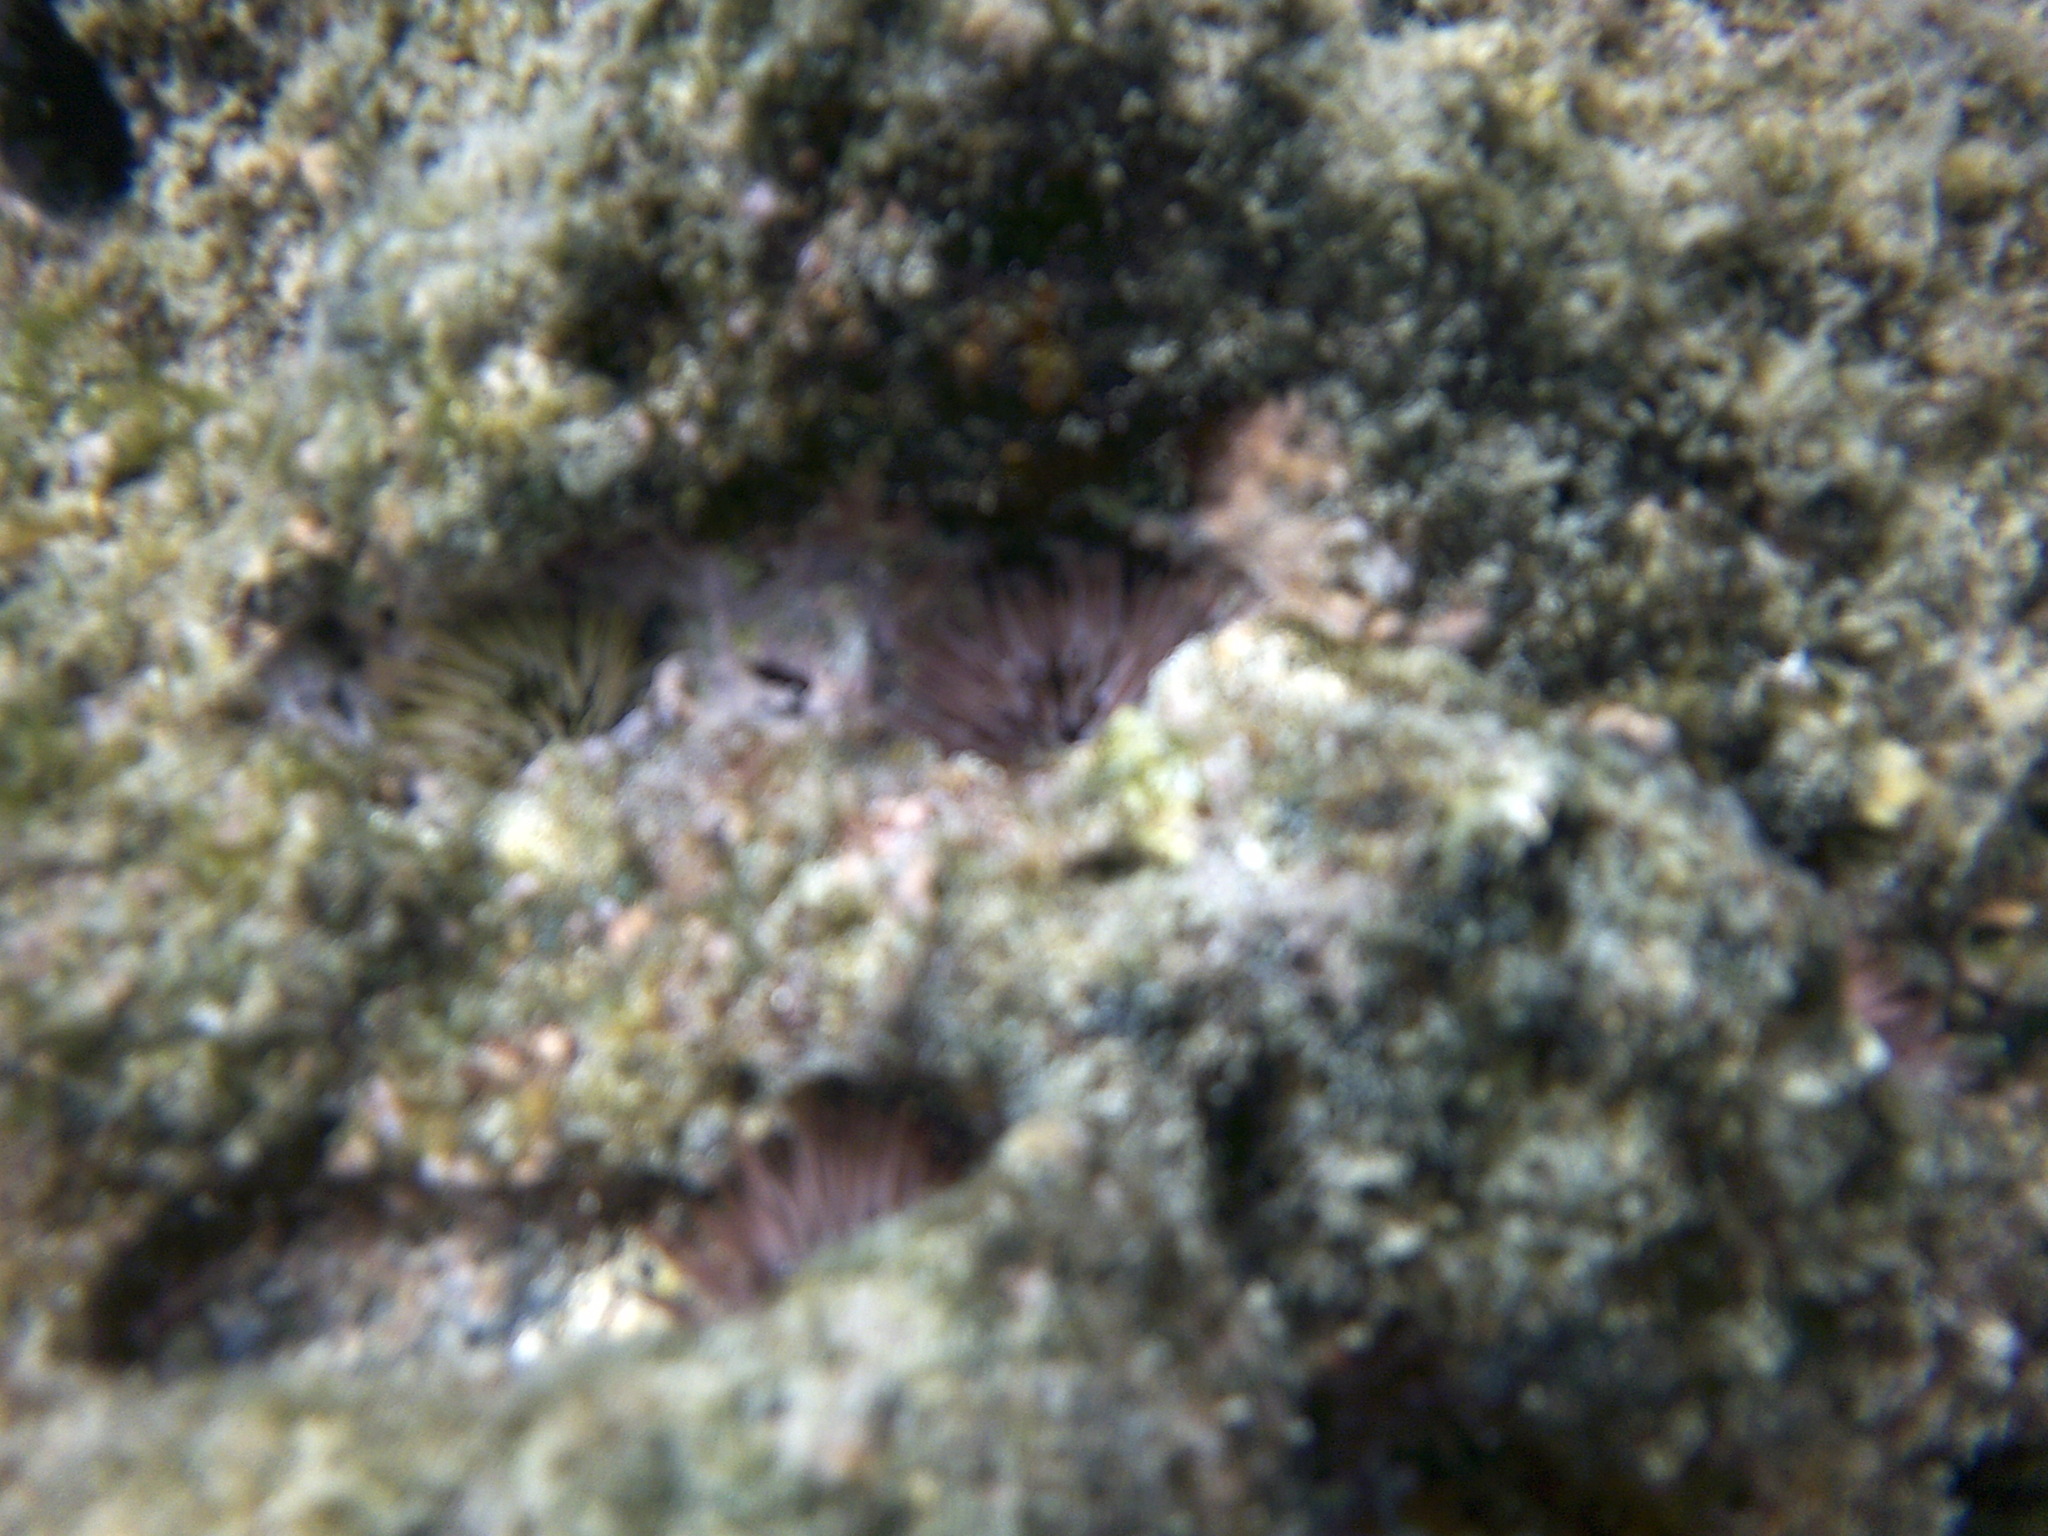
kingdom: Animalia
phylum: Echinodermata
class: Echinoidea
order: Camarodonta
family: Echinometridae
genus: Echinometra
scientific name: Echinometra mathaei
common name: Rock-boring urchin
